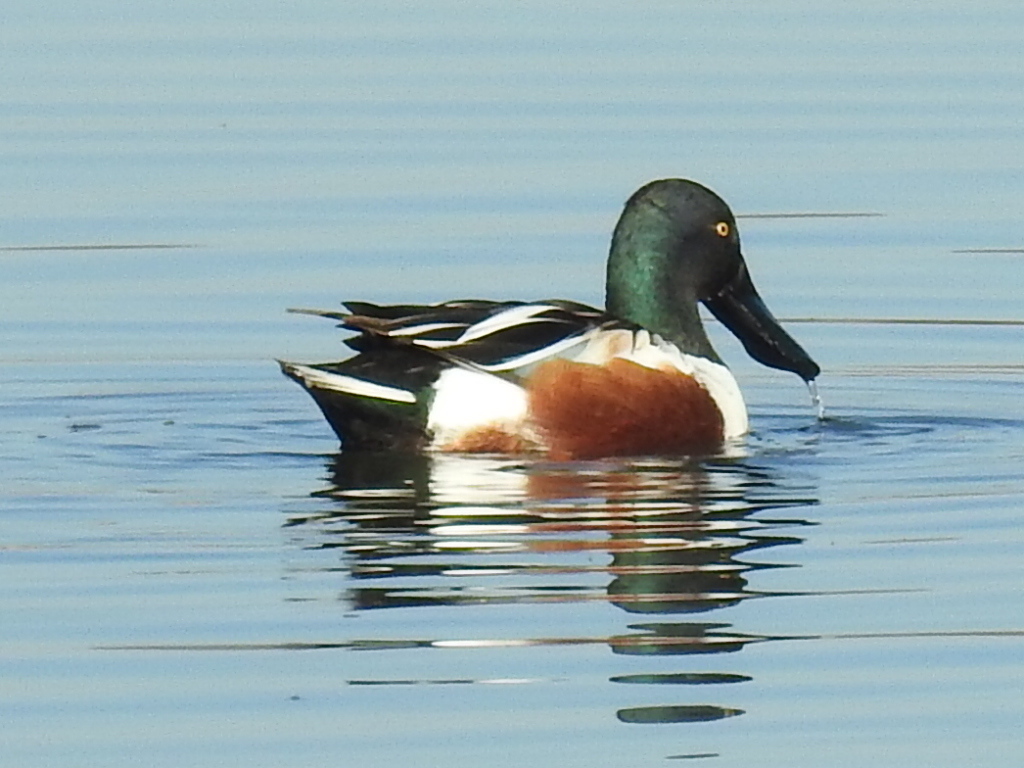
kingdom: Animalia
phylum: Chordata
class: Aves
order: Anseriformes
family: Anatidae
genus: Spatula
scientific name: Spatula clypeata
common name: Northern shoveler
